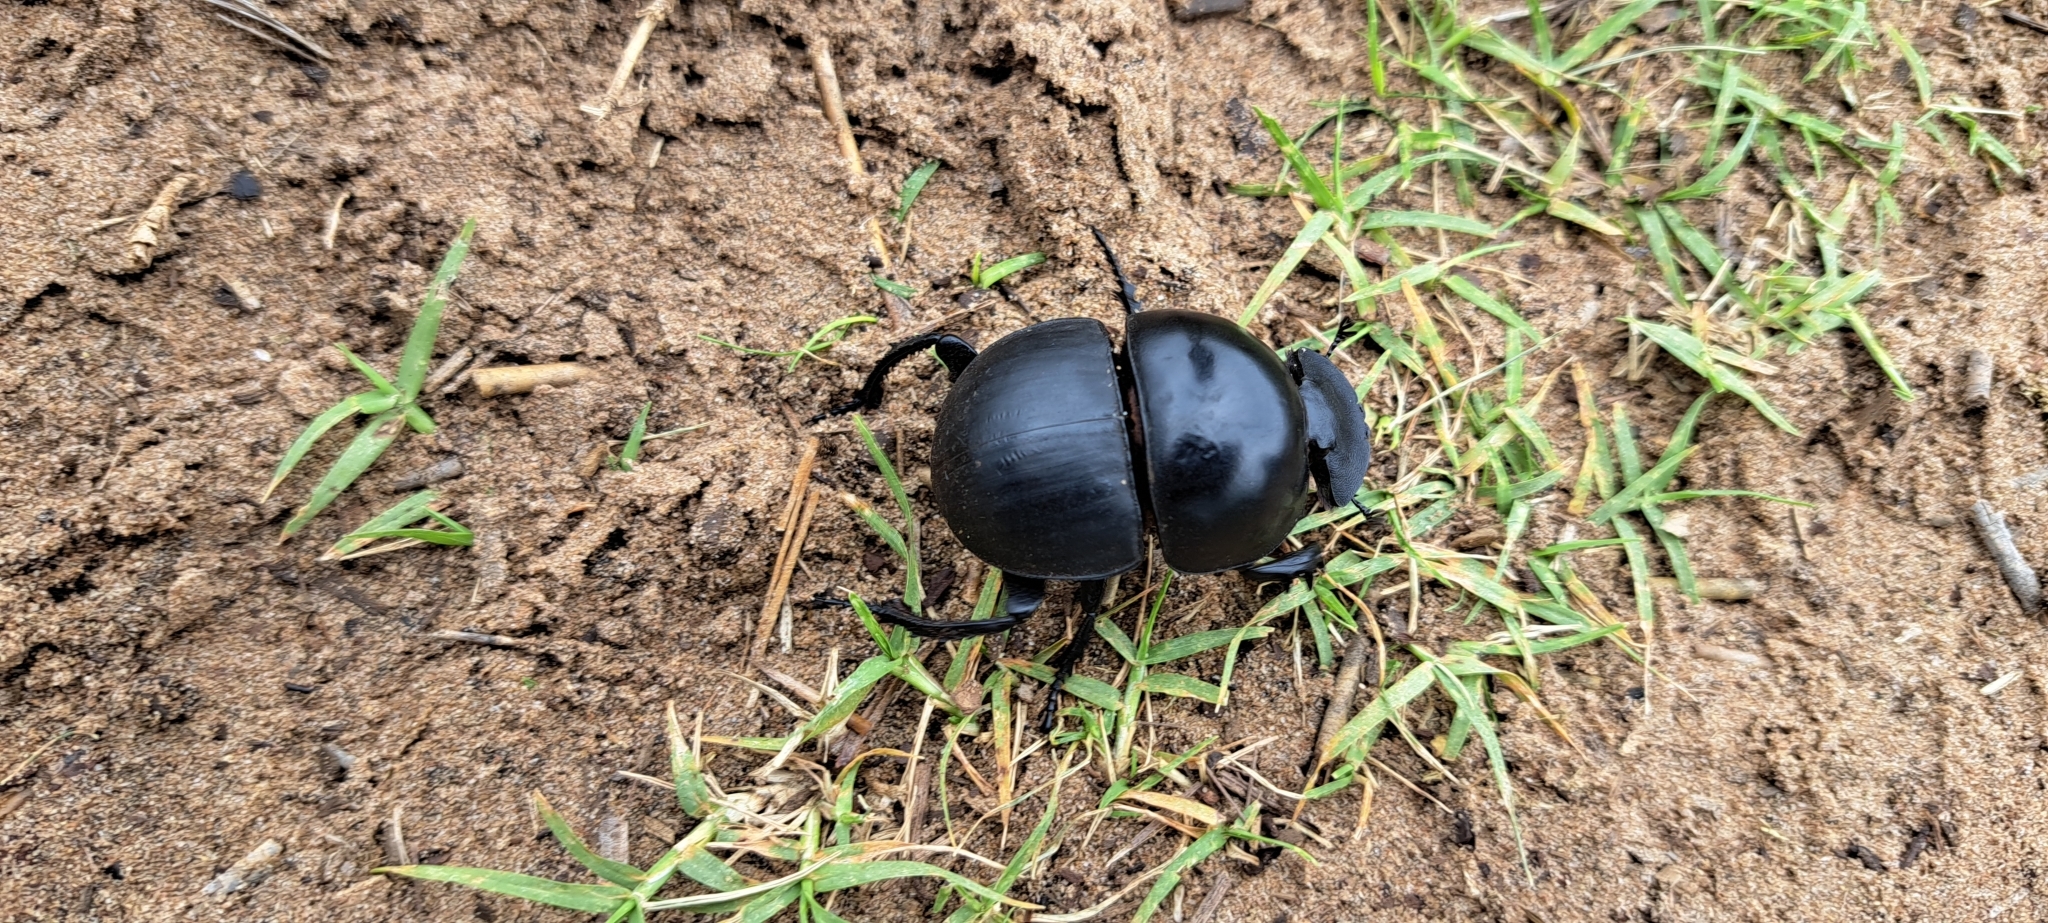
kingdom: Animalia
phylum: Arthropoda
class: Insecta
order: Coleoptera
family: Scarabaeidae
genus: Circellium
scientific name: Circellium bacchus
